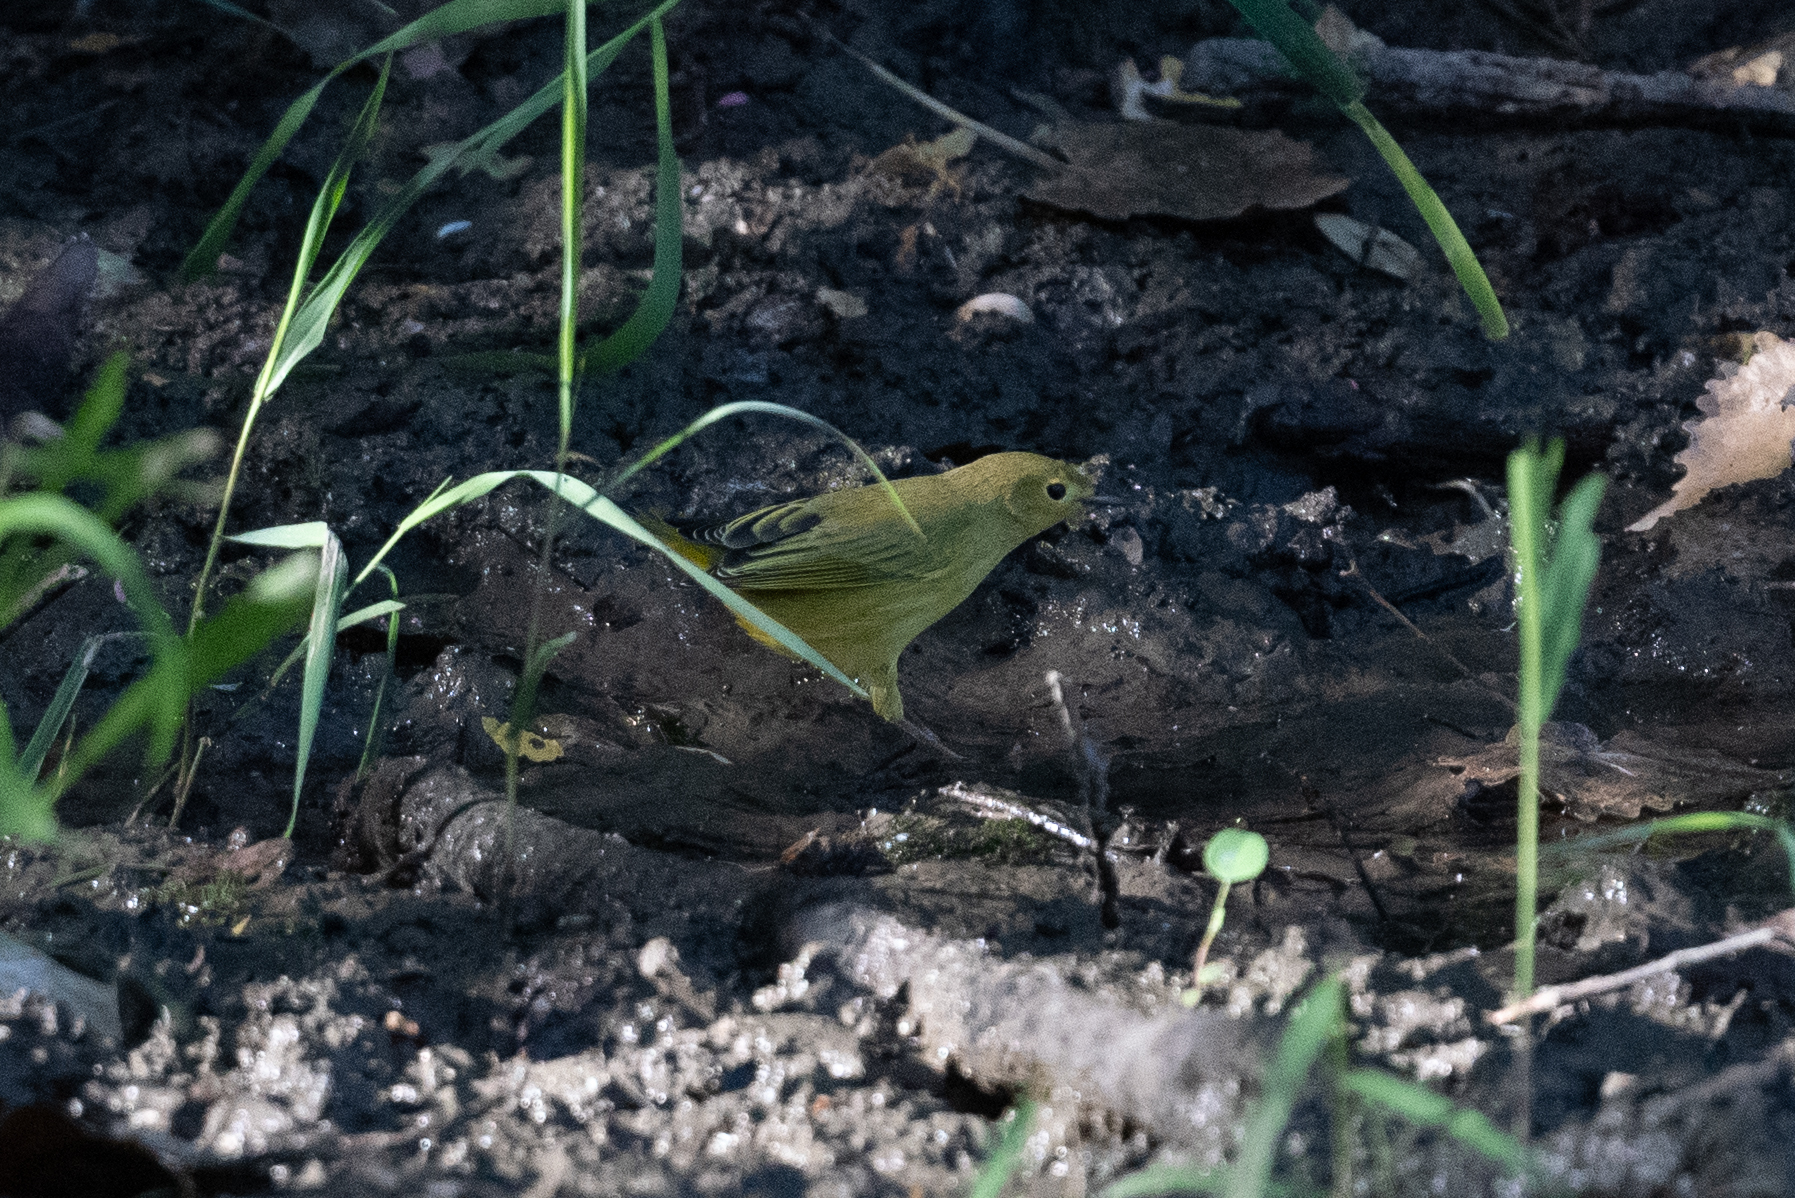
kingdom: Animalia
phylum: Chordata
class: Aves
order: Passeriformes
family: Parulidae
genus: Setophaga
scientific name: Setophaga petechia
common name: Yellow warbler
